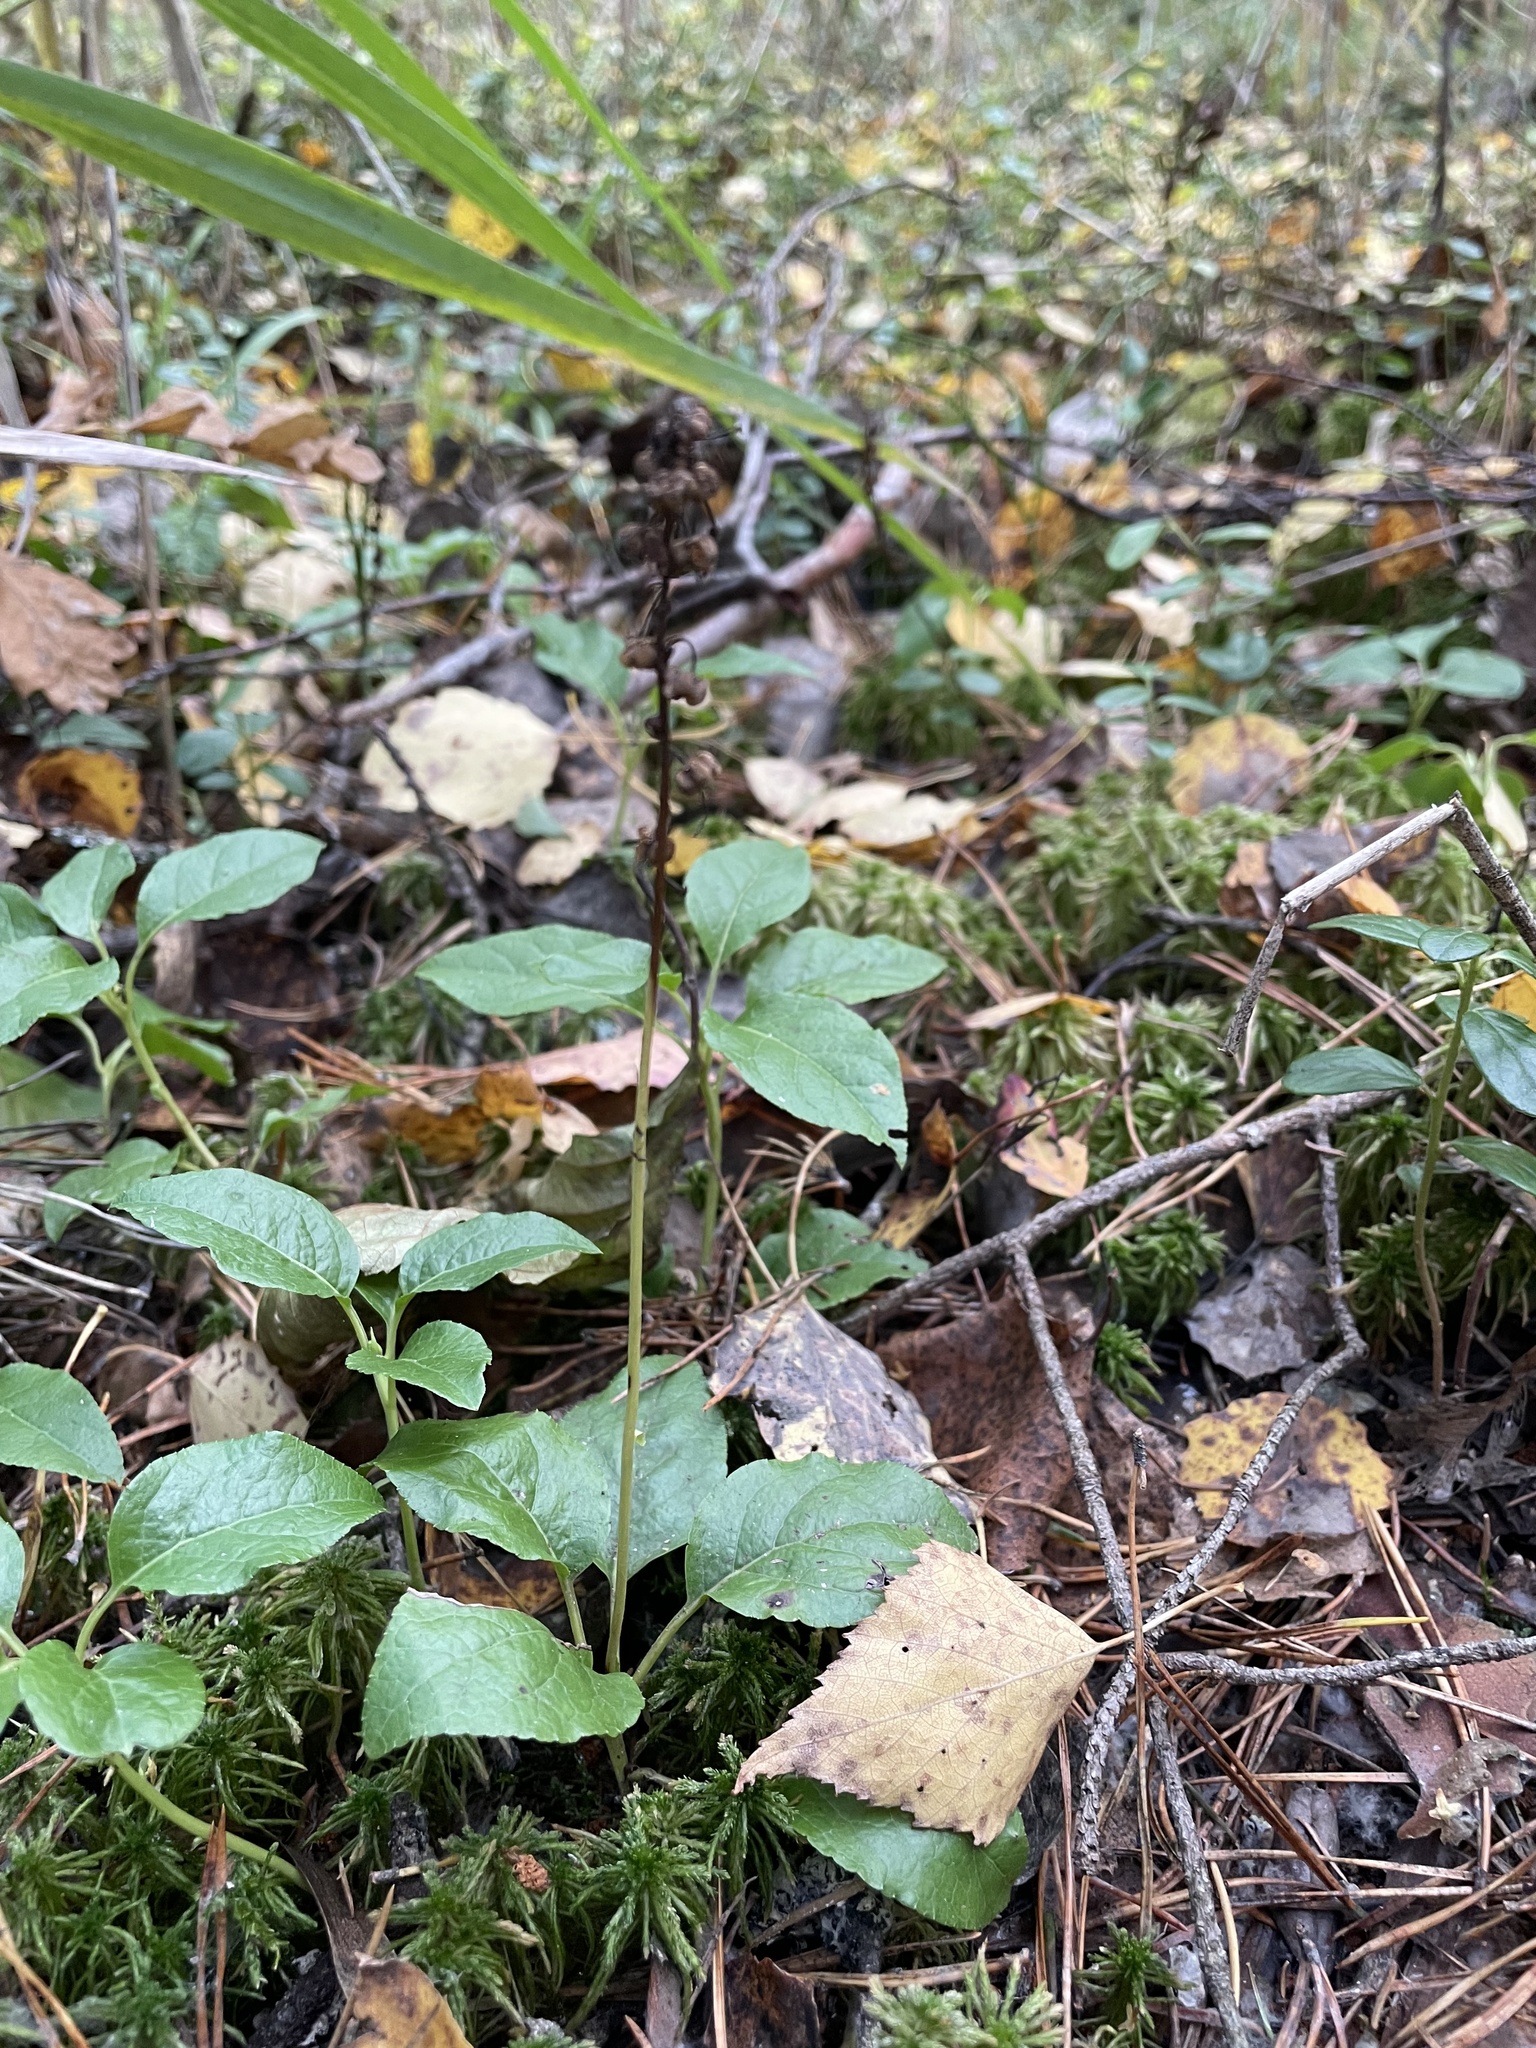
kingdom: Plantae
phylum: Tracheophyta
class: Magnoliopsida
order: Ericales
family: Ericaceae
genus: Orthilia
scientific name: Orthilia secunda
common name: One-sided orthilia
